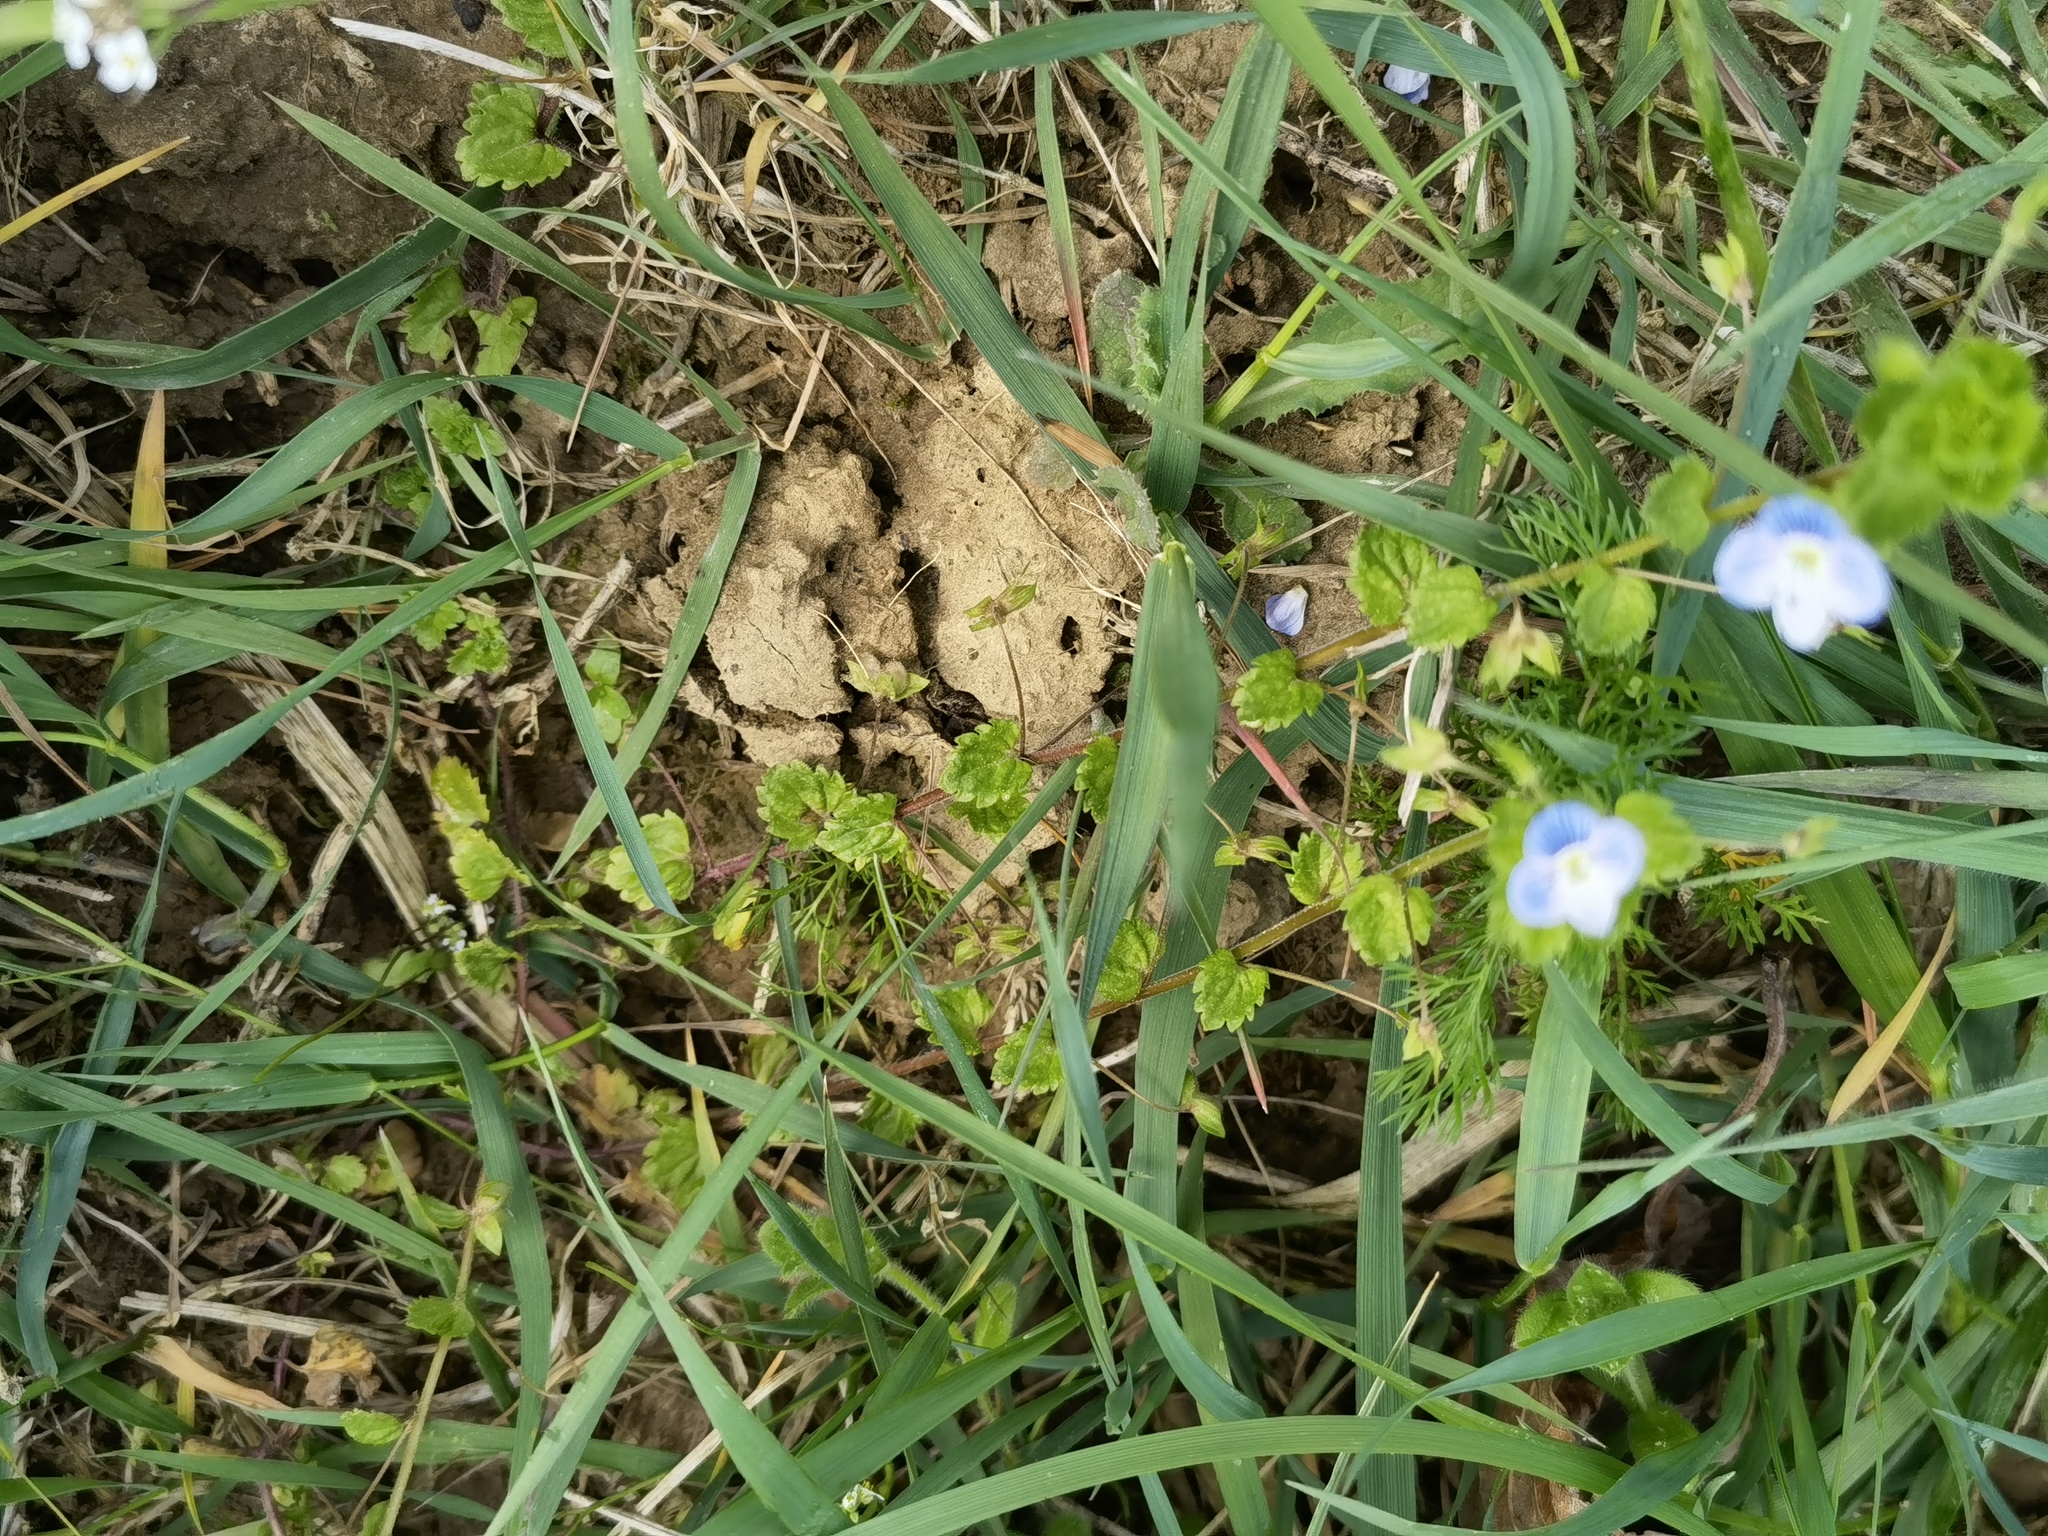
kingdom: Plantae
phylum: Tracheophyta
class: Magnoliopsida
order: Lamiales
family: Plantaginaceae
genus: Veronica
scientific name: Veronica persica
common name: Common field-speedwell
